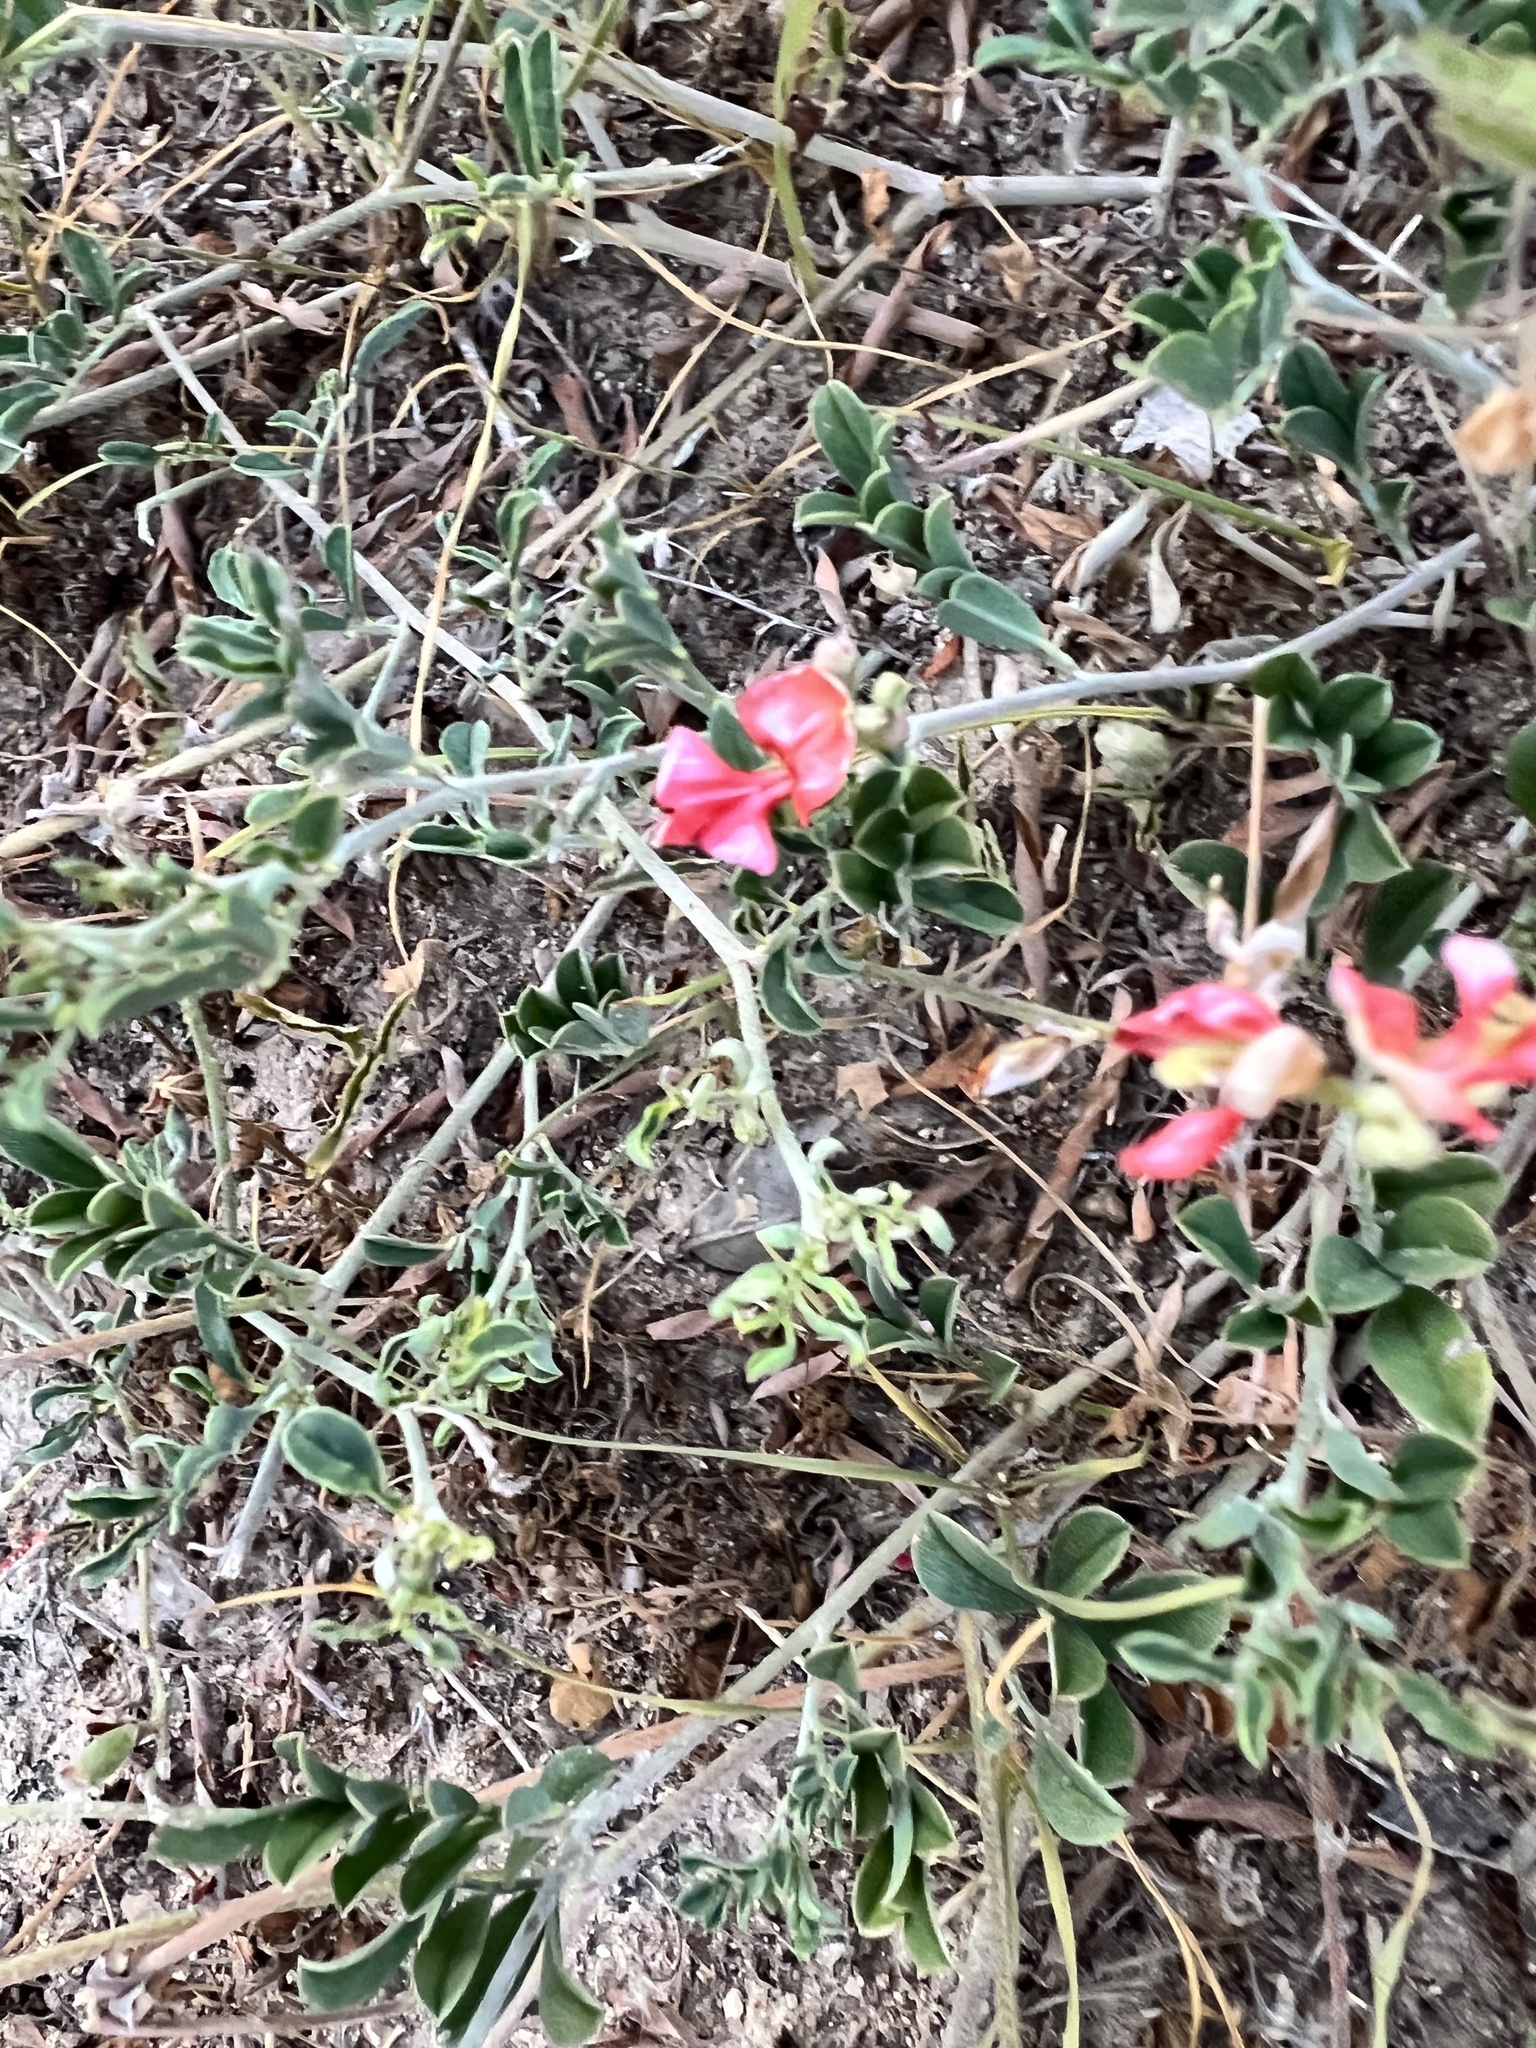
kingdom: Plantae
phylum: Tracheophyta
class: Magnoliopsida
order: Fabales
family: Fabaceae
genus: Indigofera
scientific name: Indigofera miniata
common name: Coast indigo
